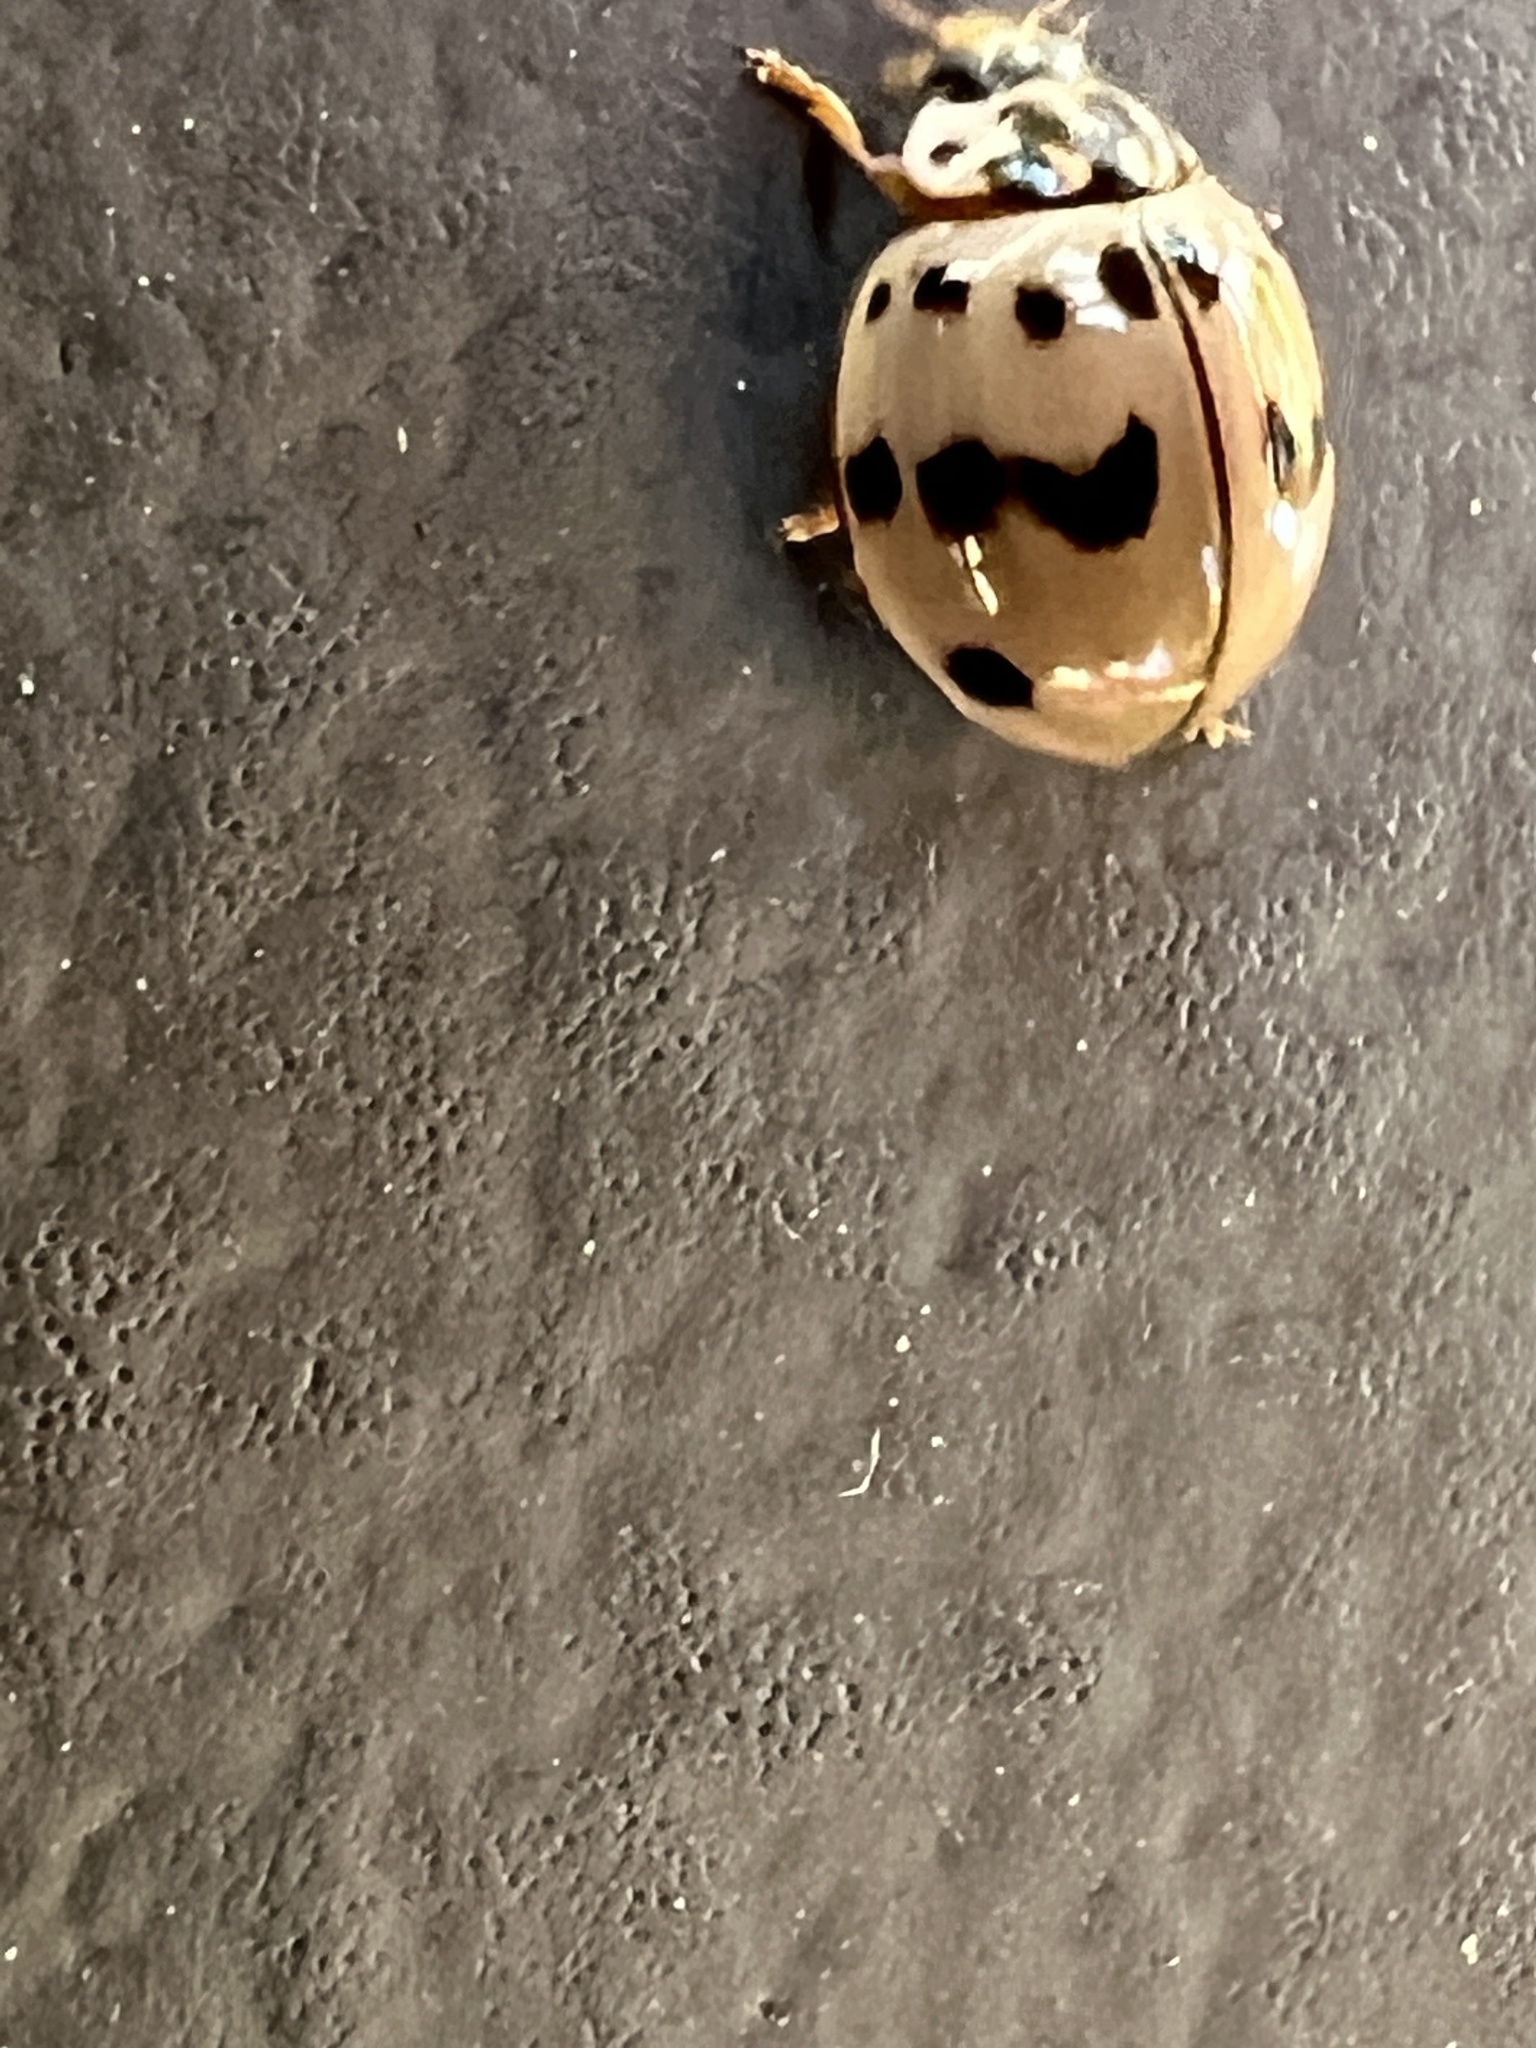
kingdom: Animalia
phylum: Arthropoda
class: Insecta
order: Coleoptera
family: Coccinellidae
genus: Olla
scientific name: Olla v-nigrum
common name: Ashy gray lady beetle
